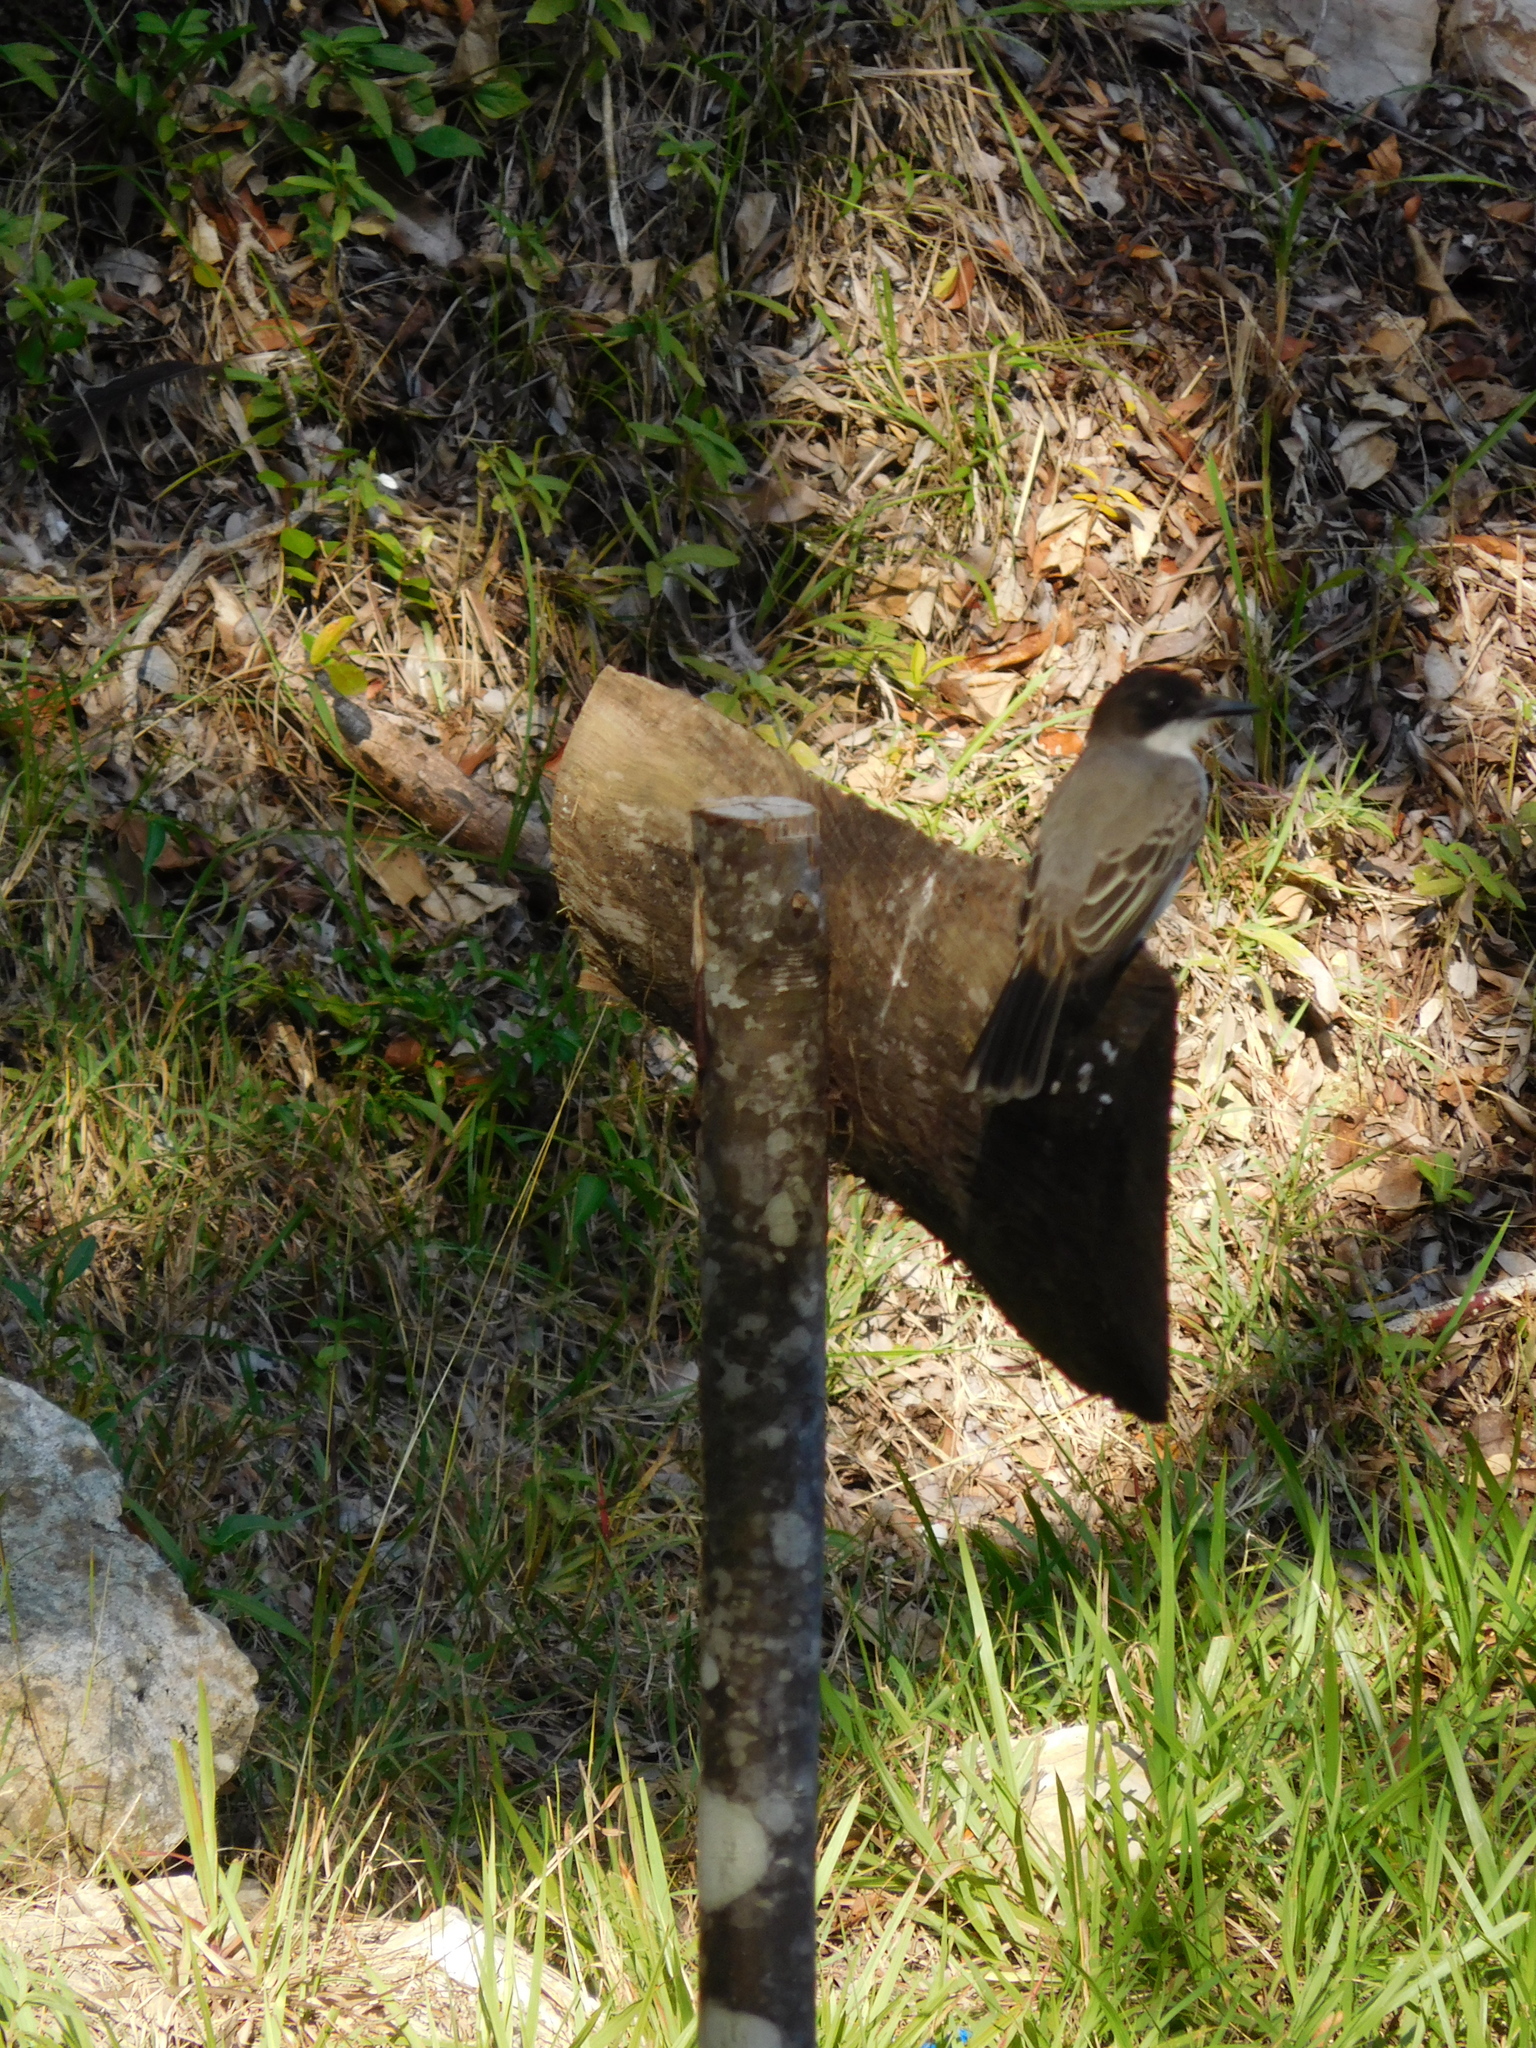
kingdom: Animalia
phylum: Chordata
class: Aves
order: Passeriformes
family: Tyrannidae
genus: Tyrannus
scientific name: Tyrannus caudifasciatus
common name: Loggerhead kingbird
